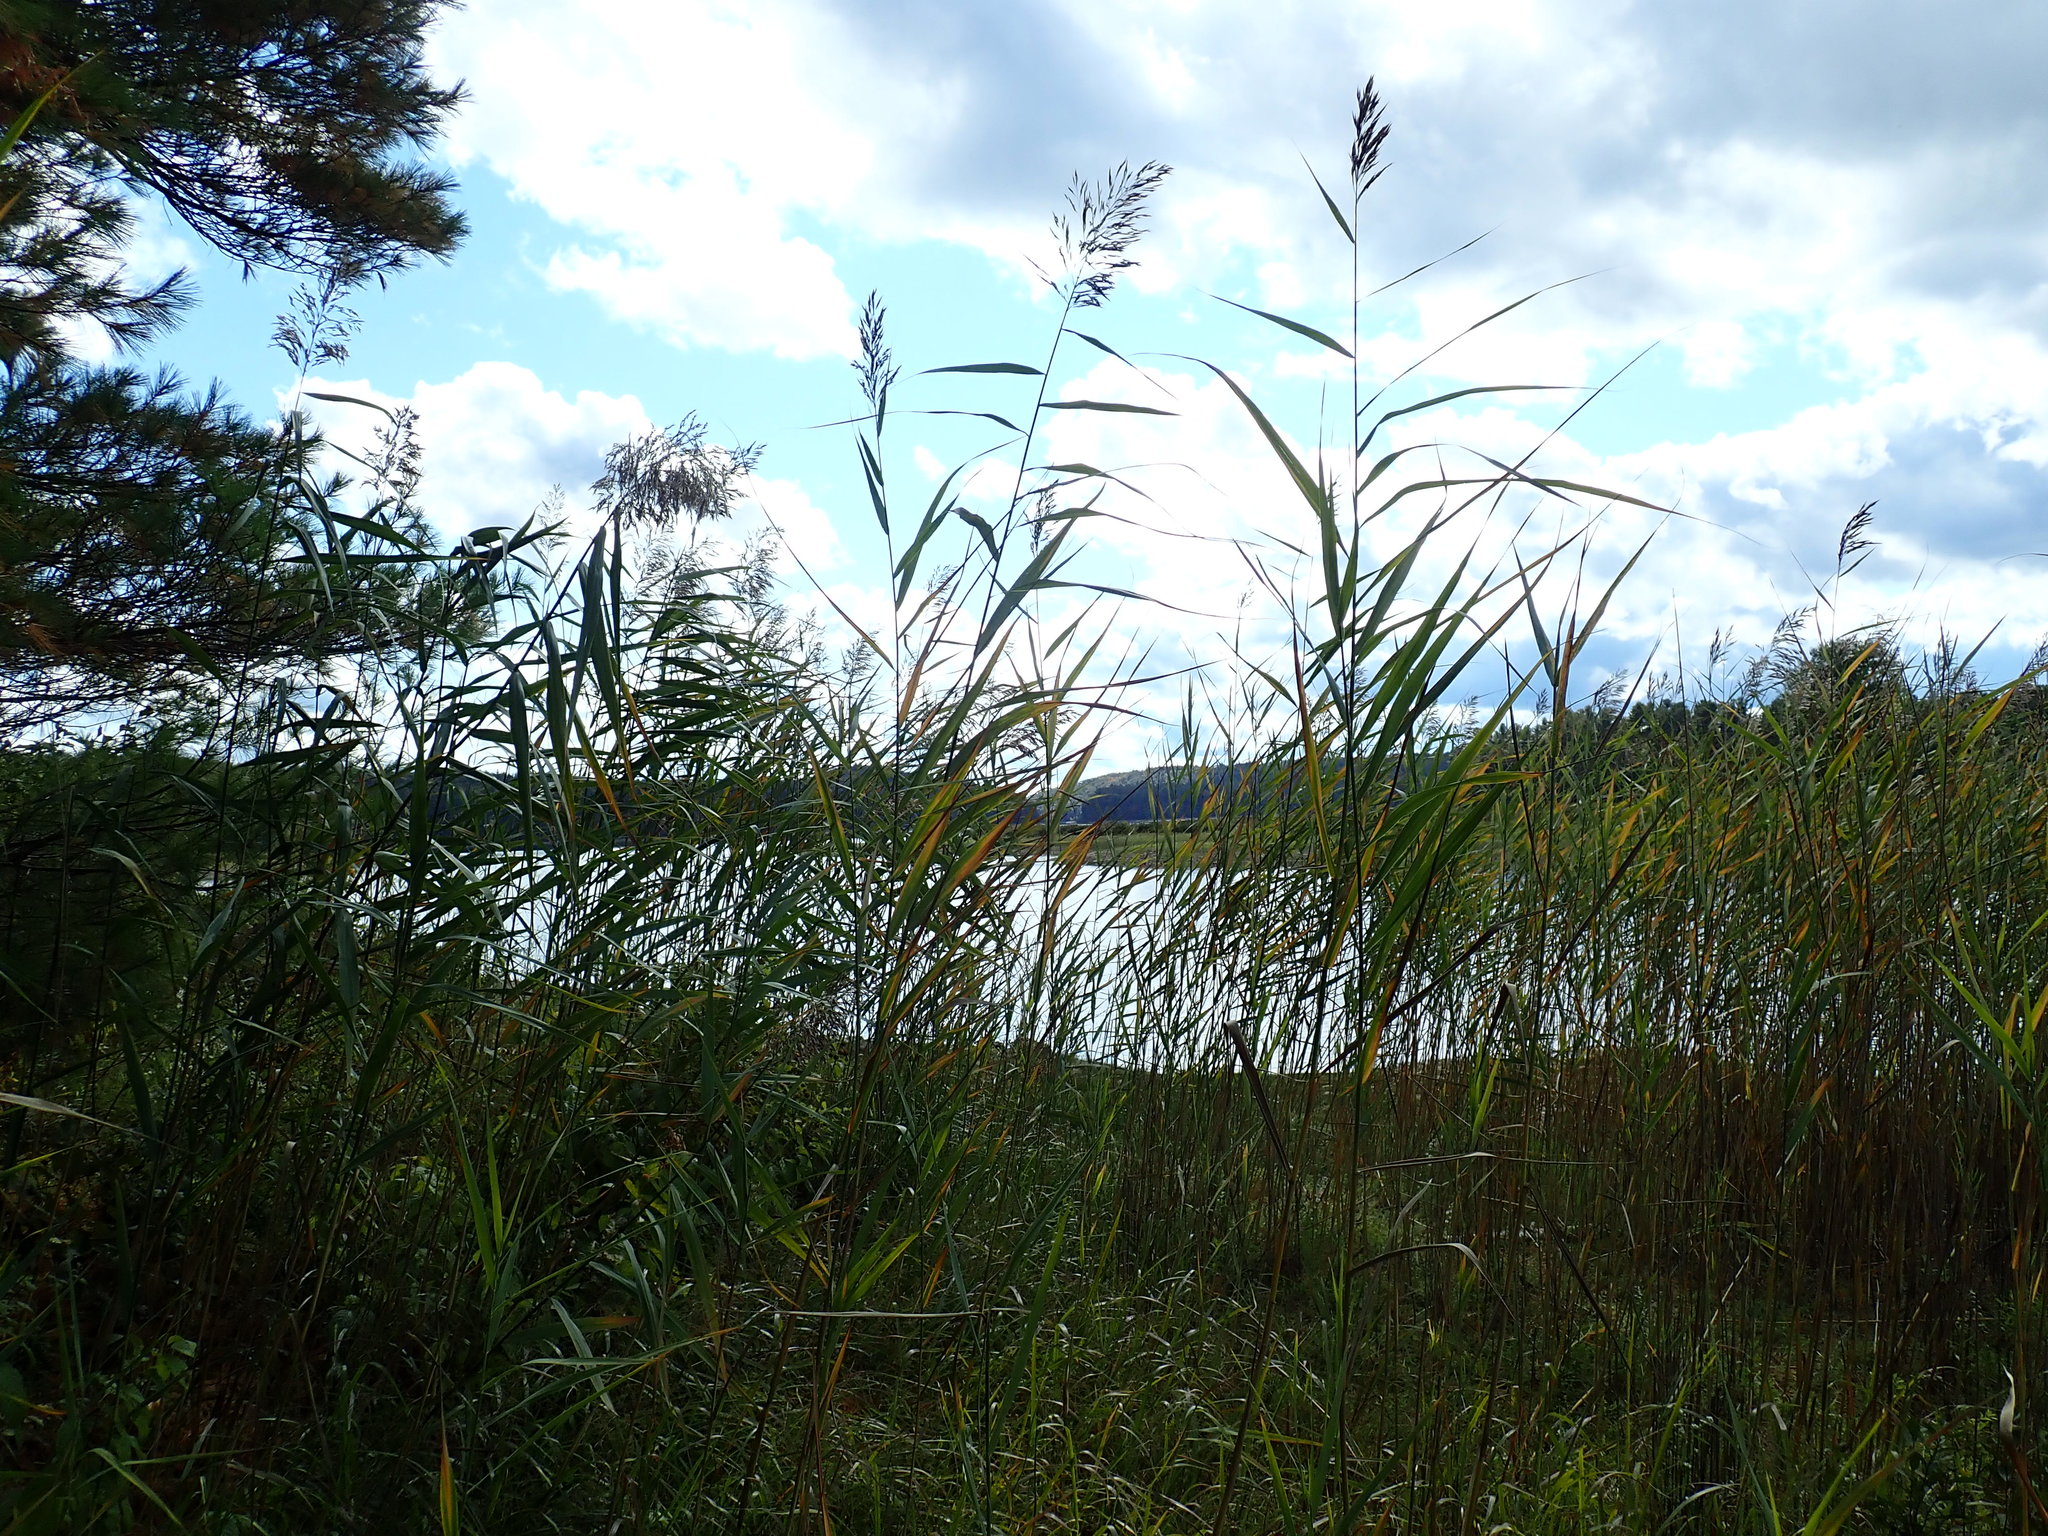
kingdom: Plantae
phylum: Tracheophyta
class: Liliopsida
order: Poales
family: Poaceae
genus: Phragmites
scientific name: Phragmites australis
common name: Common reed
